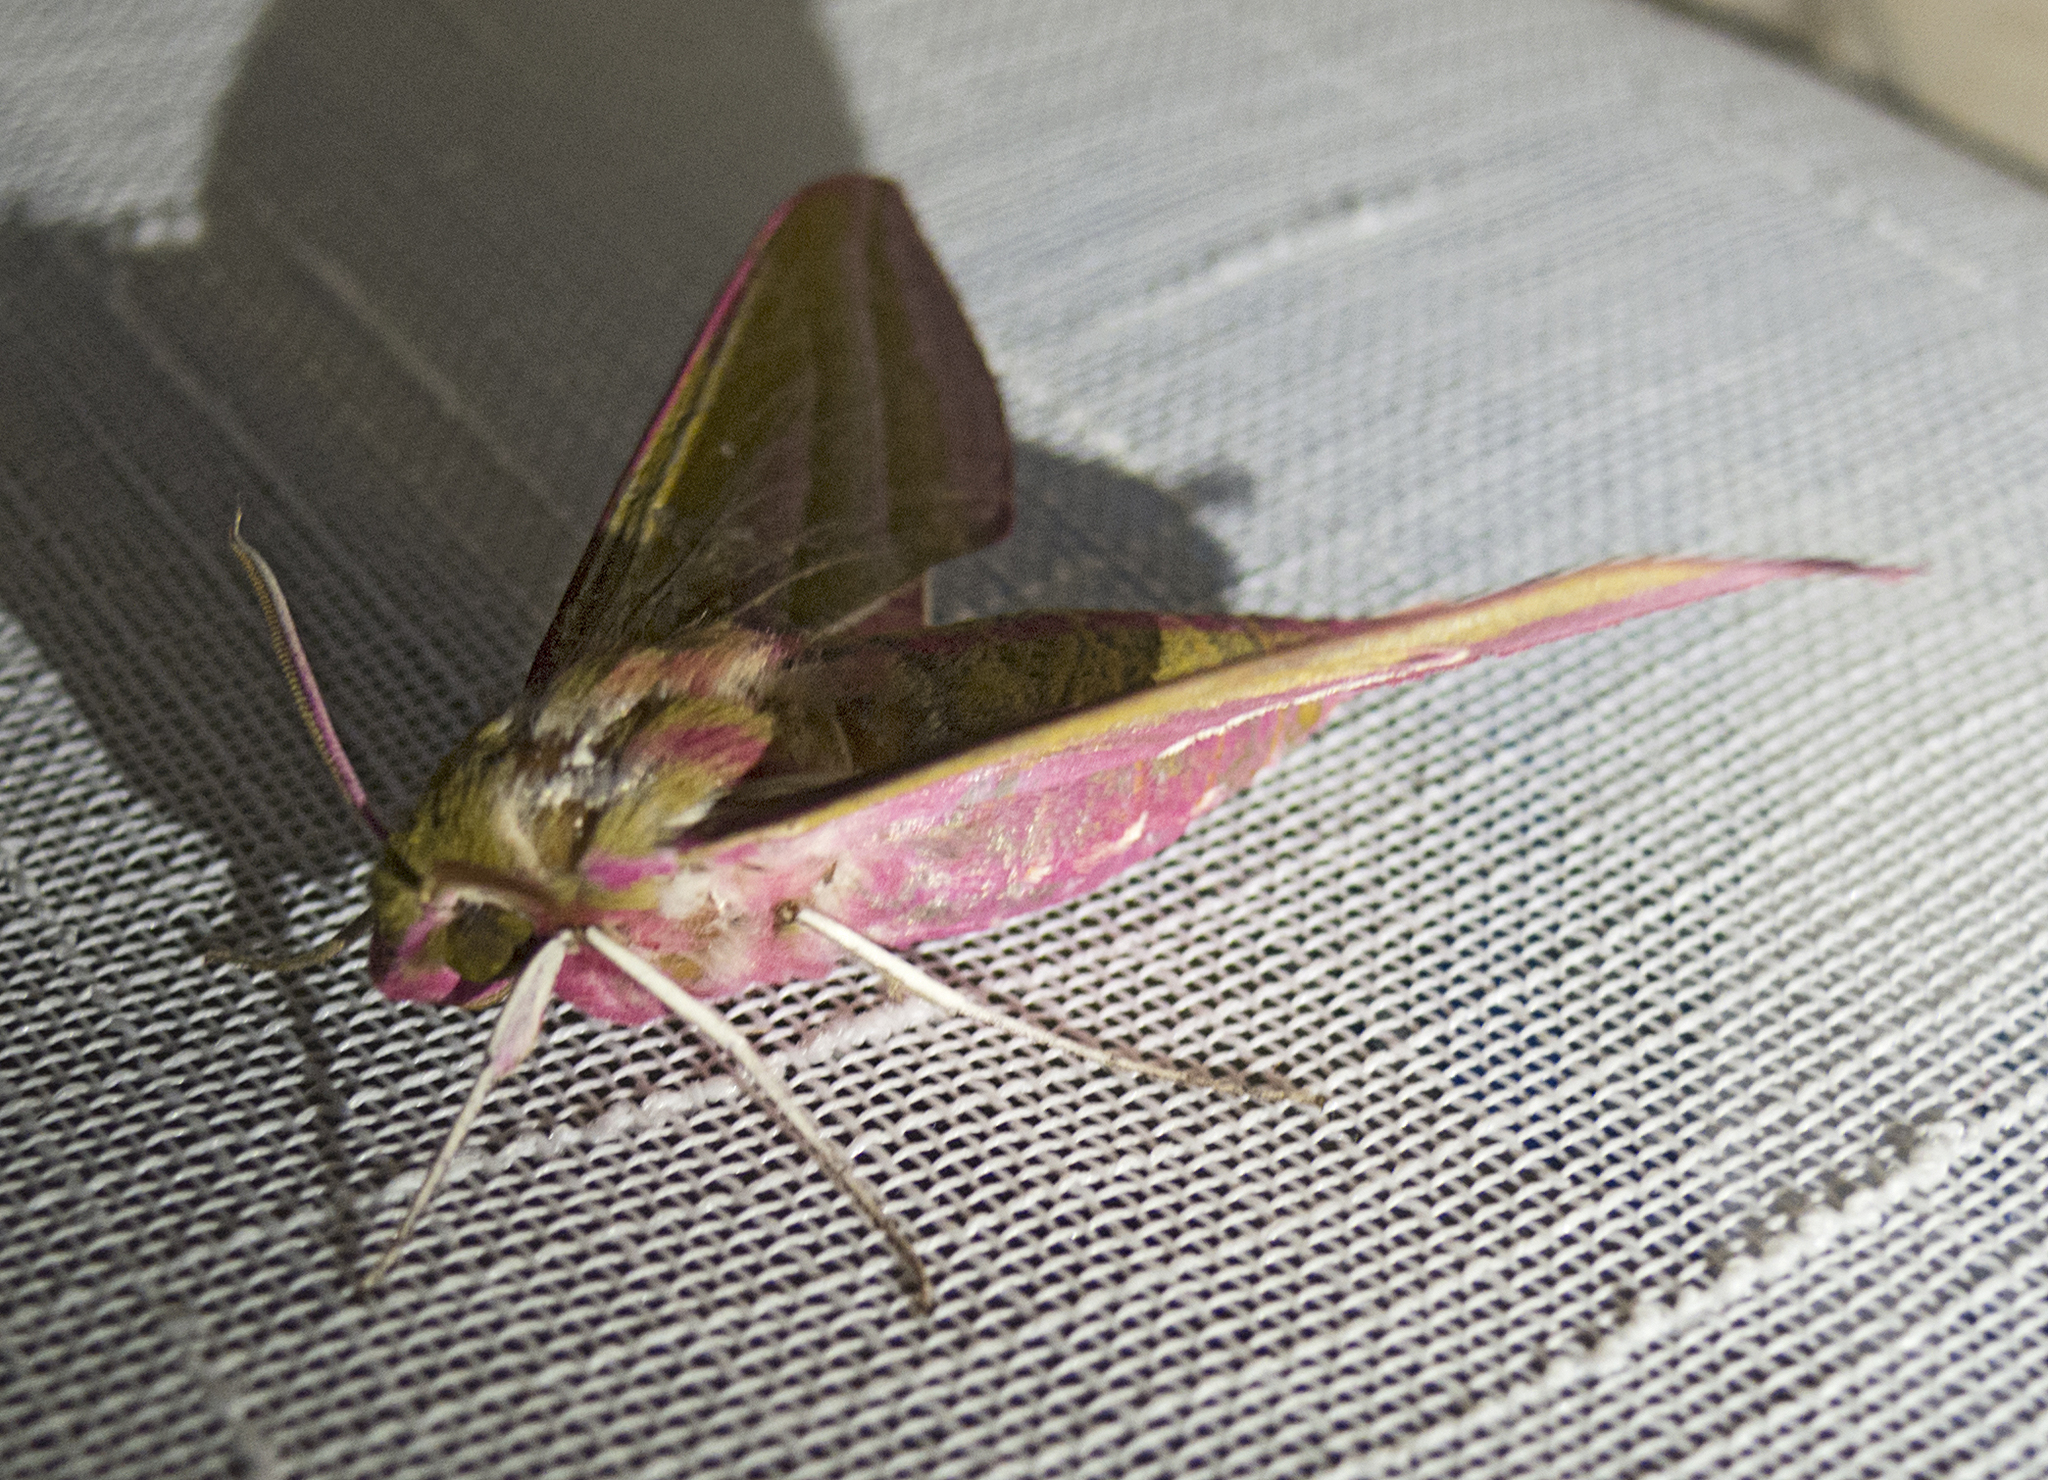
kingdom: Animalia
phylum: Arthropoda
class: Insecta
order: Lepidoptera
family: Sphingidae
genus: Deilephila
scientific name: Deilephila elpenor
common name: Elephant hawk-moth
